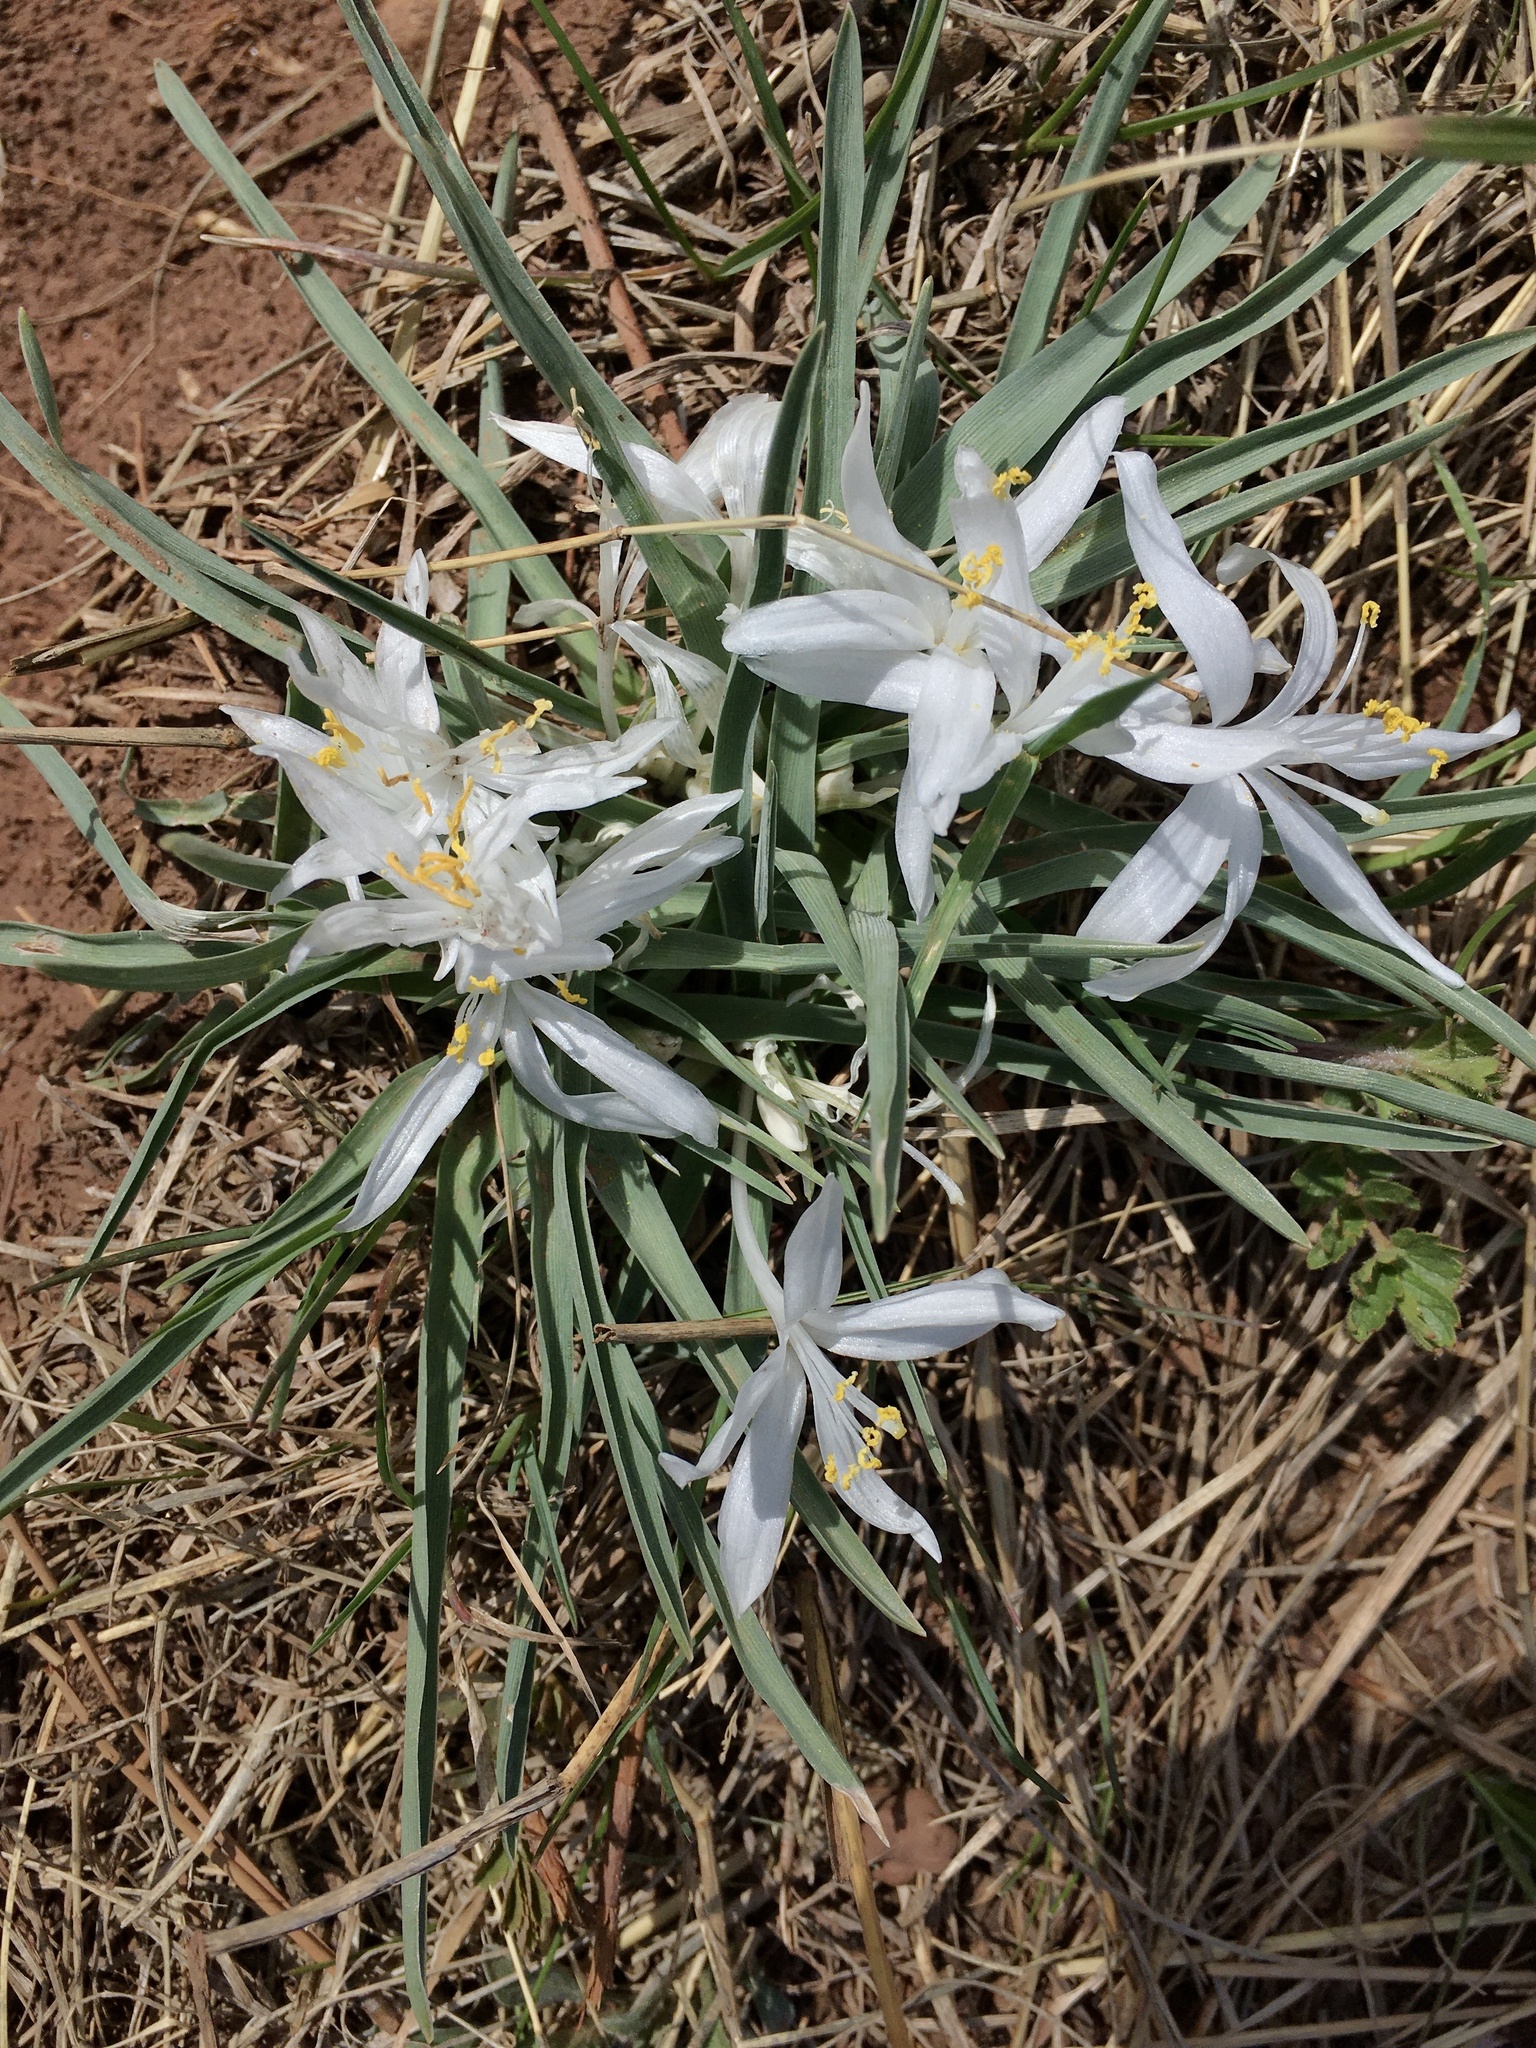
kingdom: Plantae
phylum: Tracheophyta
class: Liliopsida
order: Asparagales
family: Asparagaceae
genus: Leucocrinum
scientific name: Leucocrinum montanum
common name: Mountain-lily
